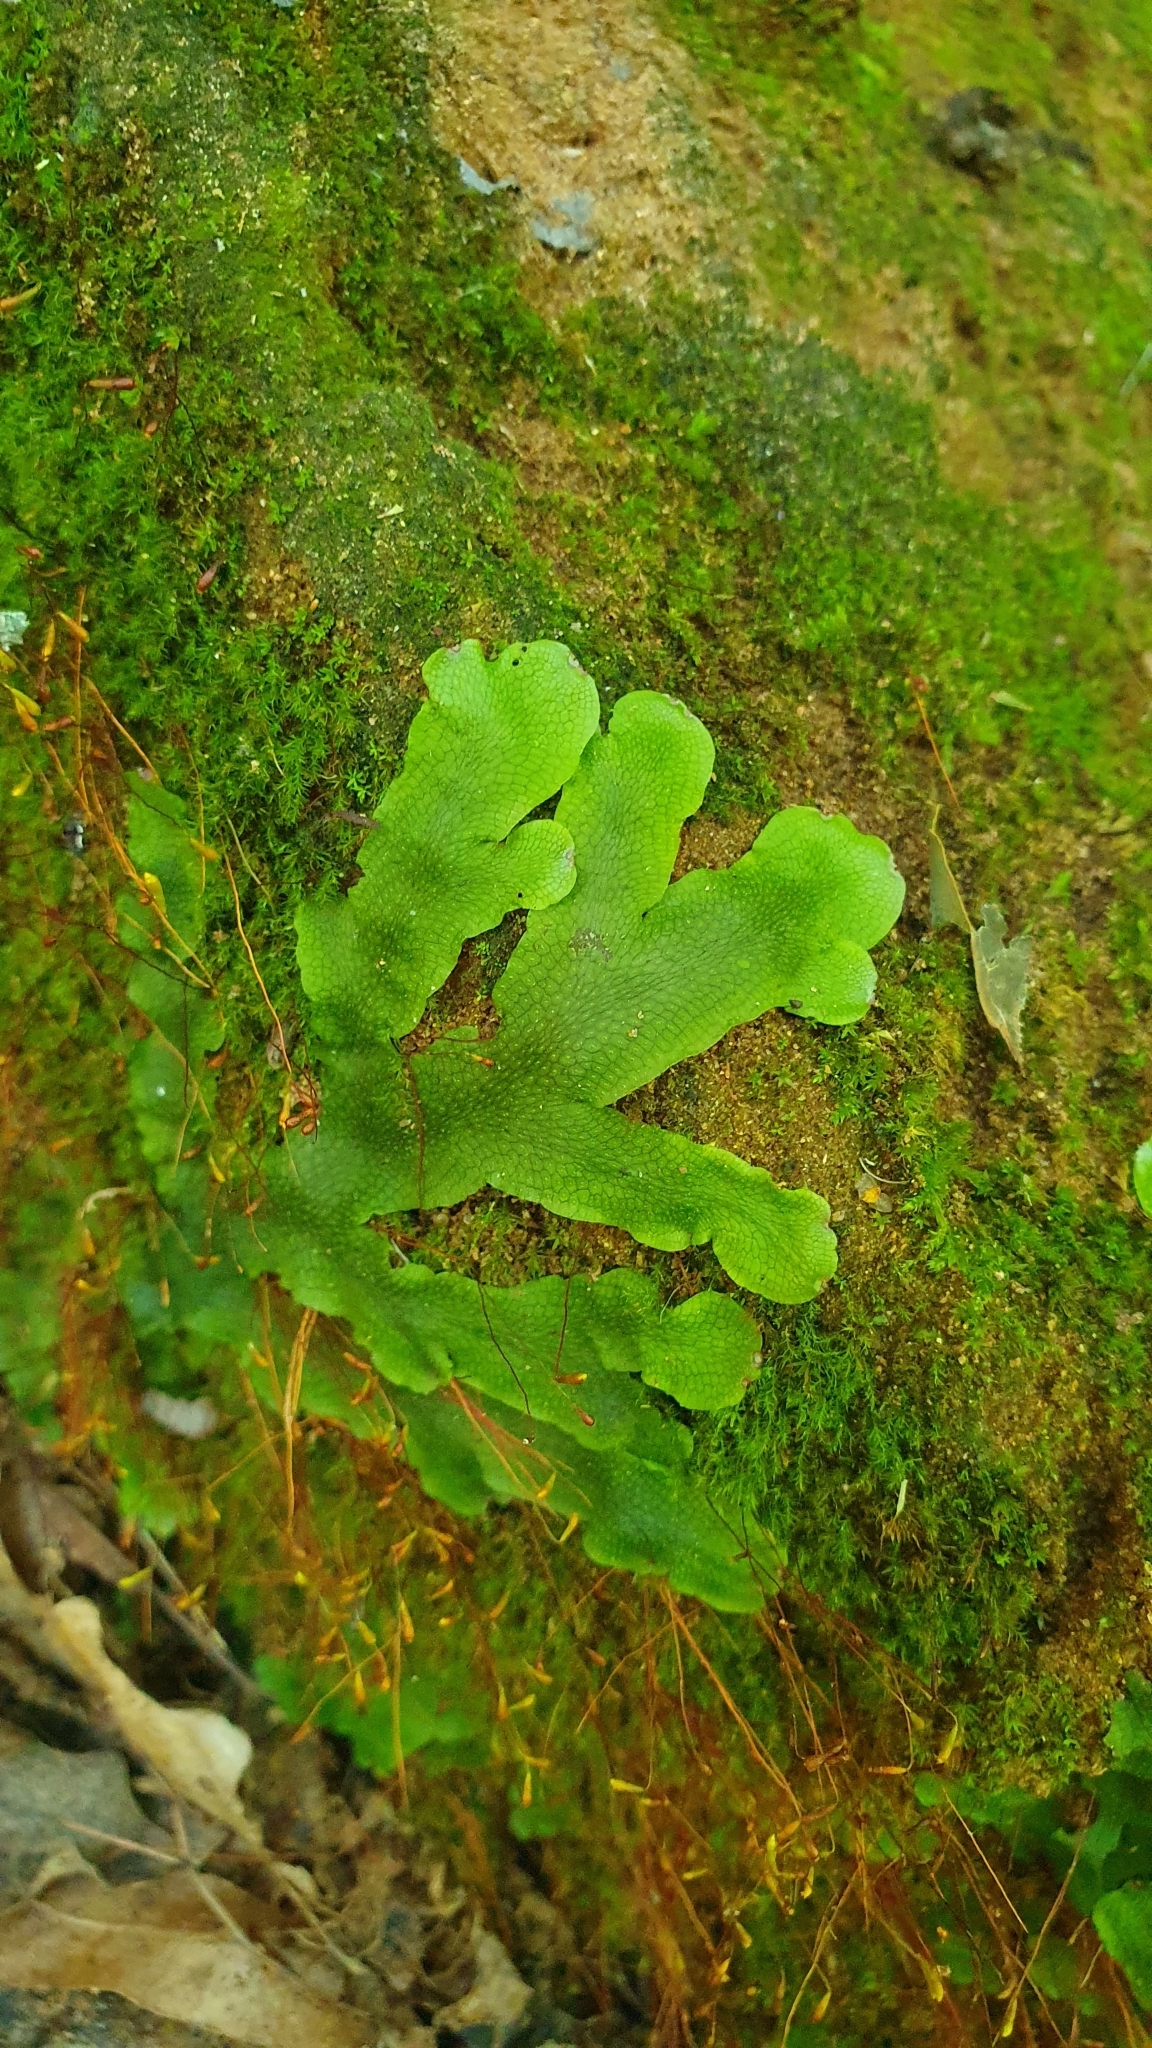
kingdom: Plantae
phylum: Marchantiophyta
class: Marchantiopsida
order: Marchantiales
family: Conocephalaceae
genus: Conocephalum
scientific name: Conocephalum salebrosum
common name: Cat-tongue liverwort
